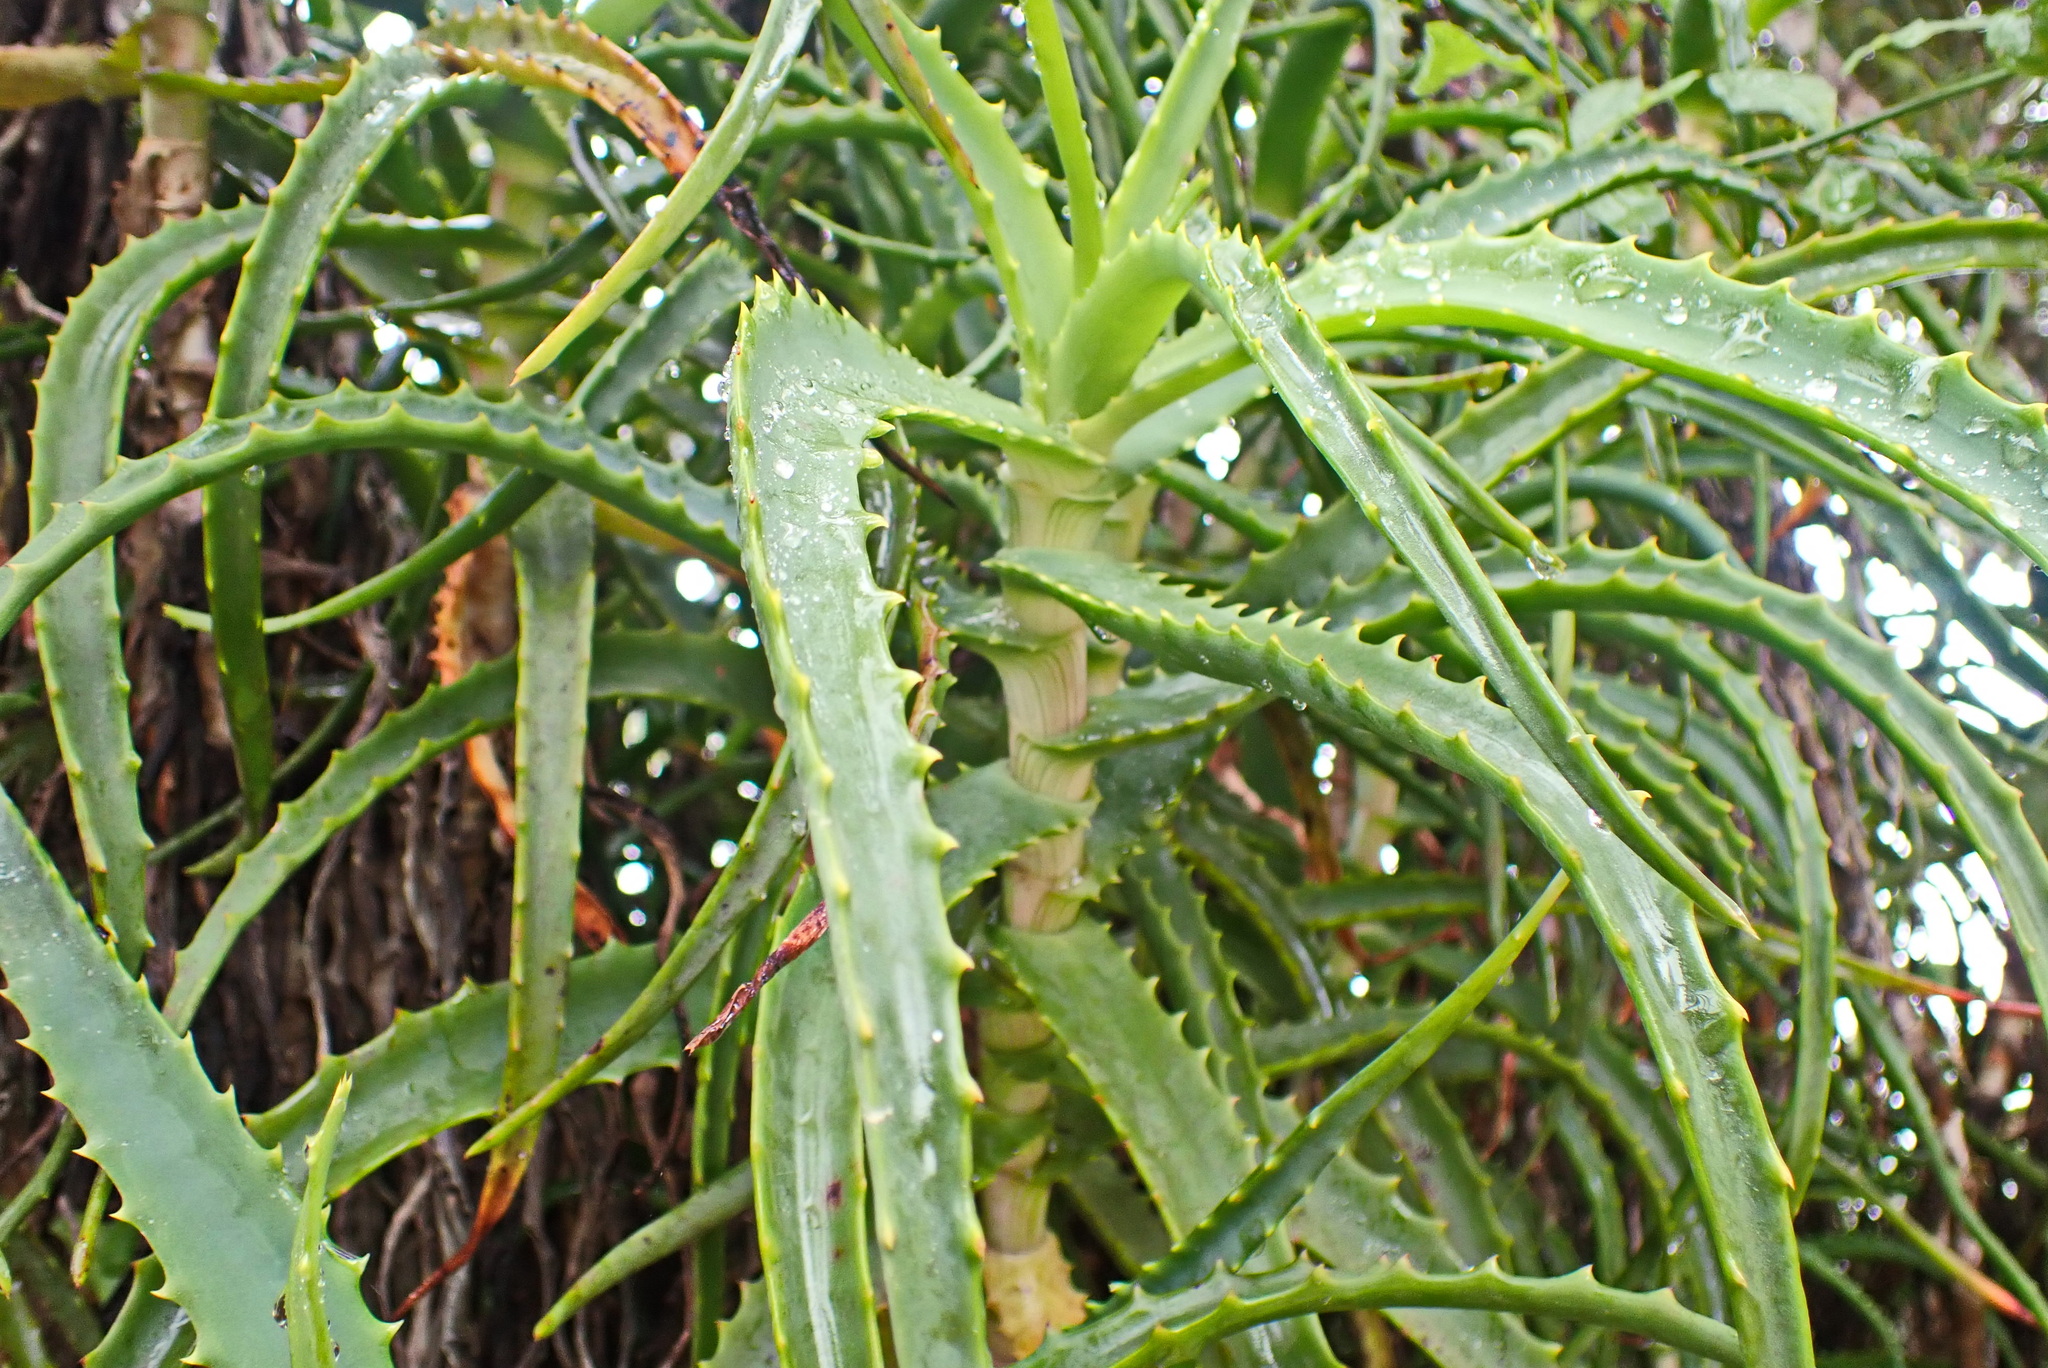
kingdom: Plantae
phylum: Tracheophyta
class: Liliopsida
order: Asparagales
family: Asphodelaceae
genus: Aloe
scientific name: Aloe arborescens
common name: Candelabra aloe
